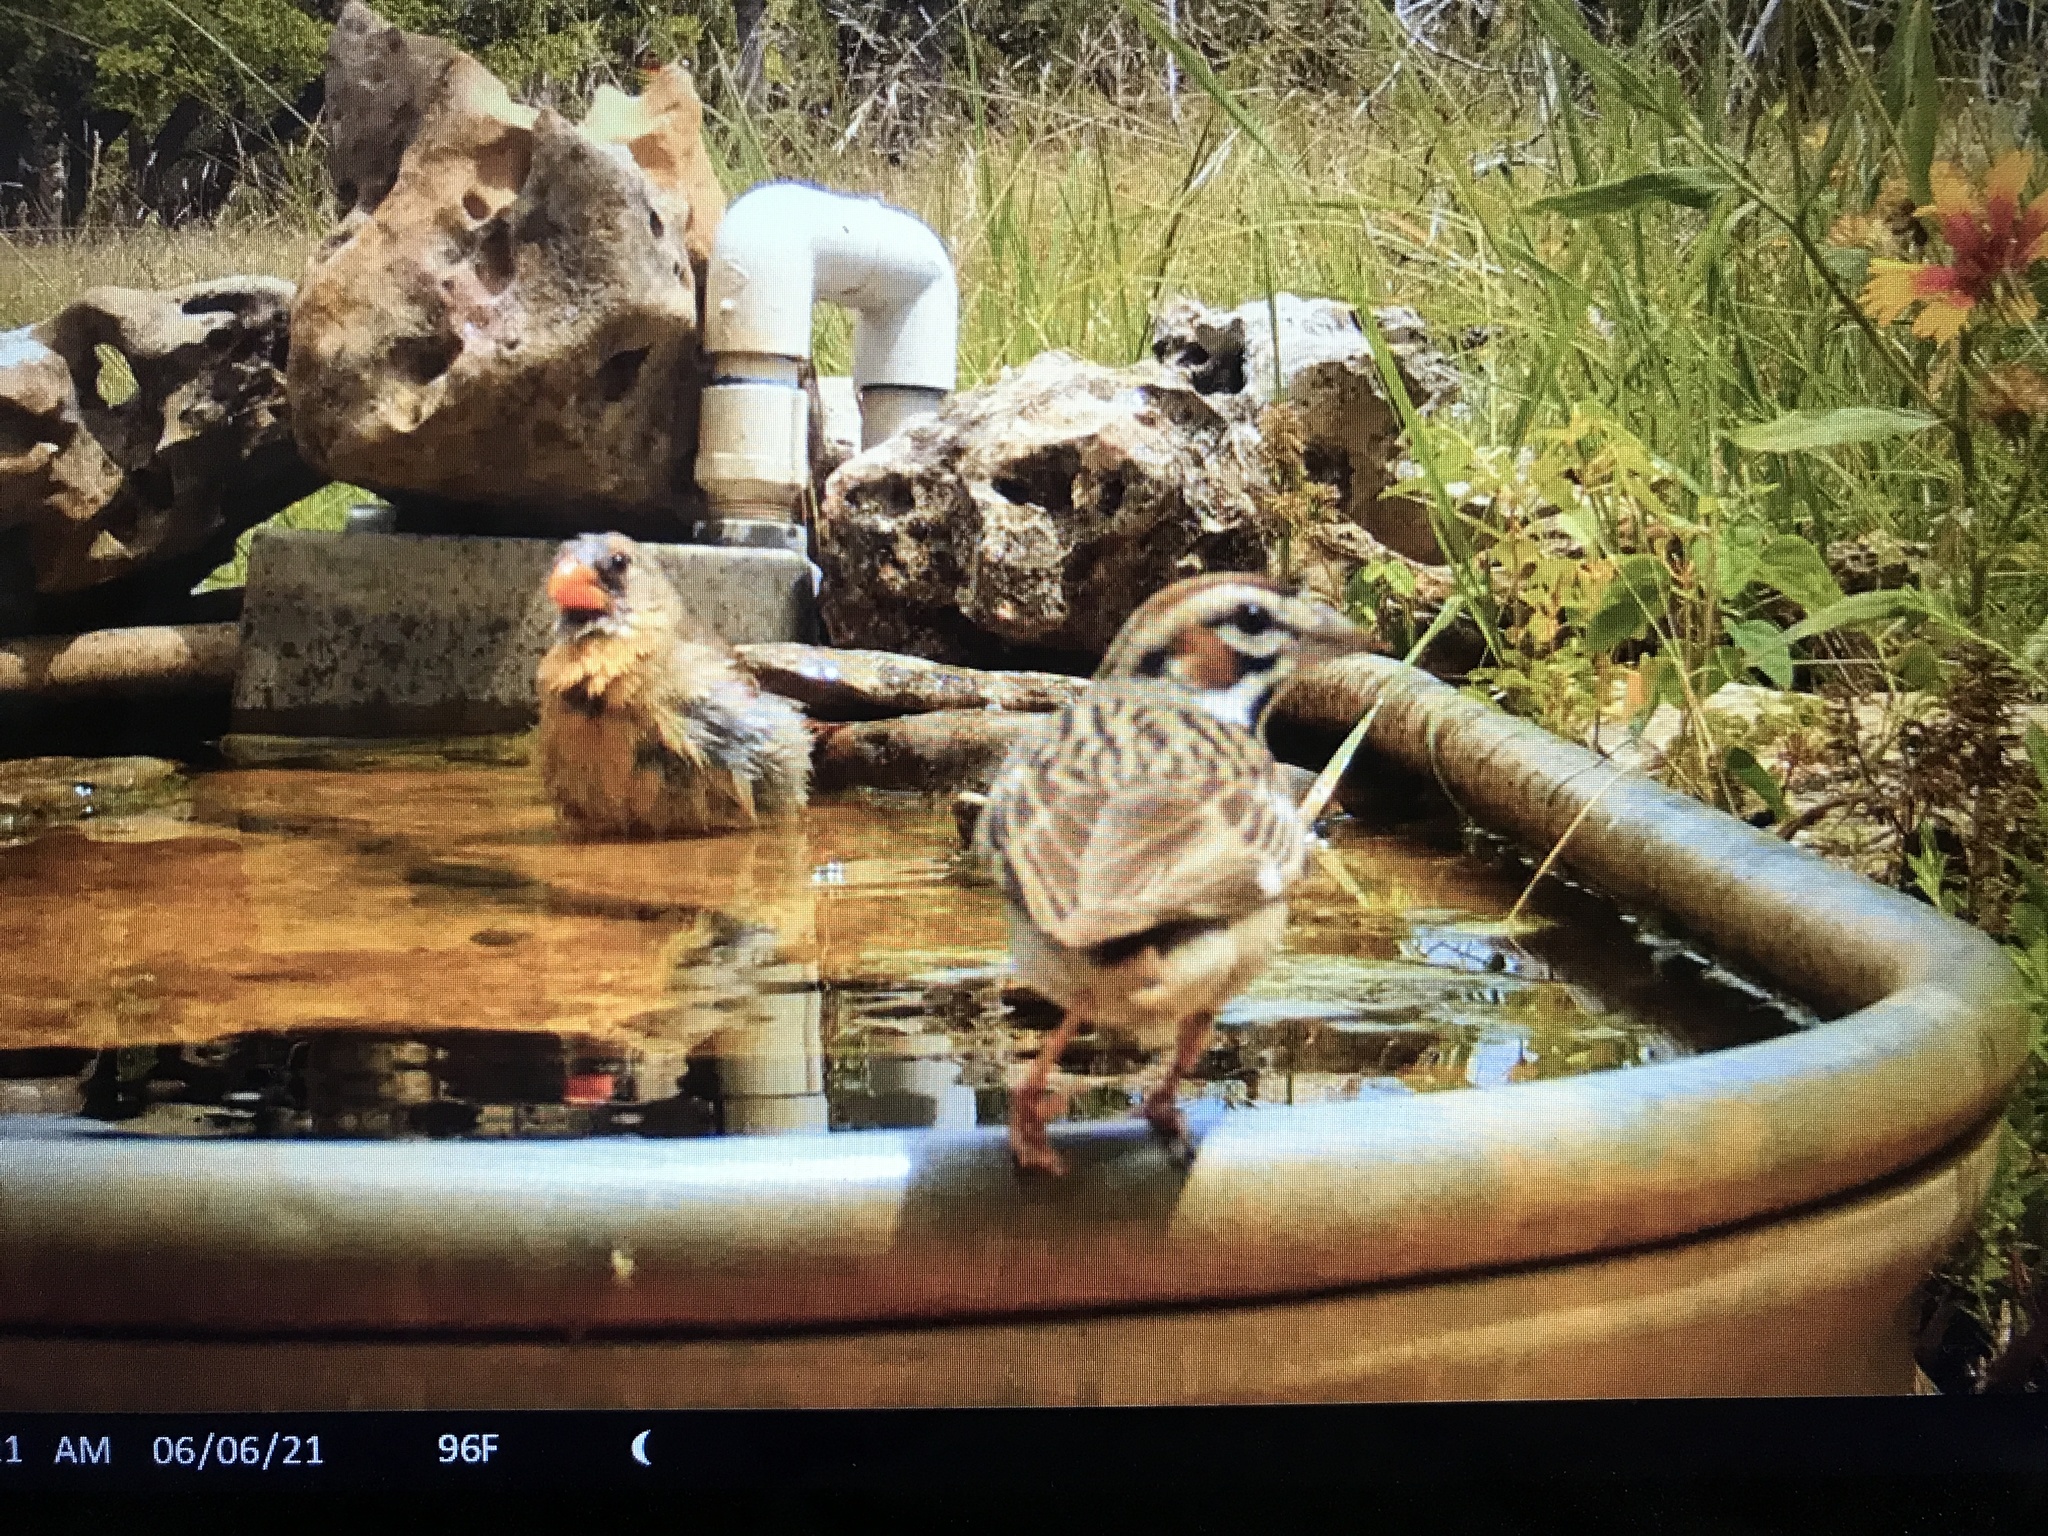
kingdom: Animalia
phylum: Chordata
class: Aves
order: Passeriformes
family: Passerellidae
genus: Chondestes
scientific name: Chondestes grammacus
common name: Lark sparrow
